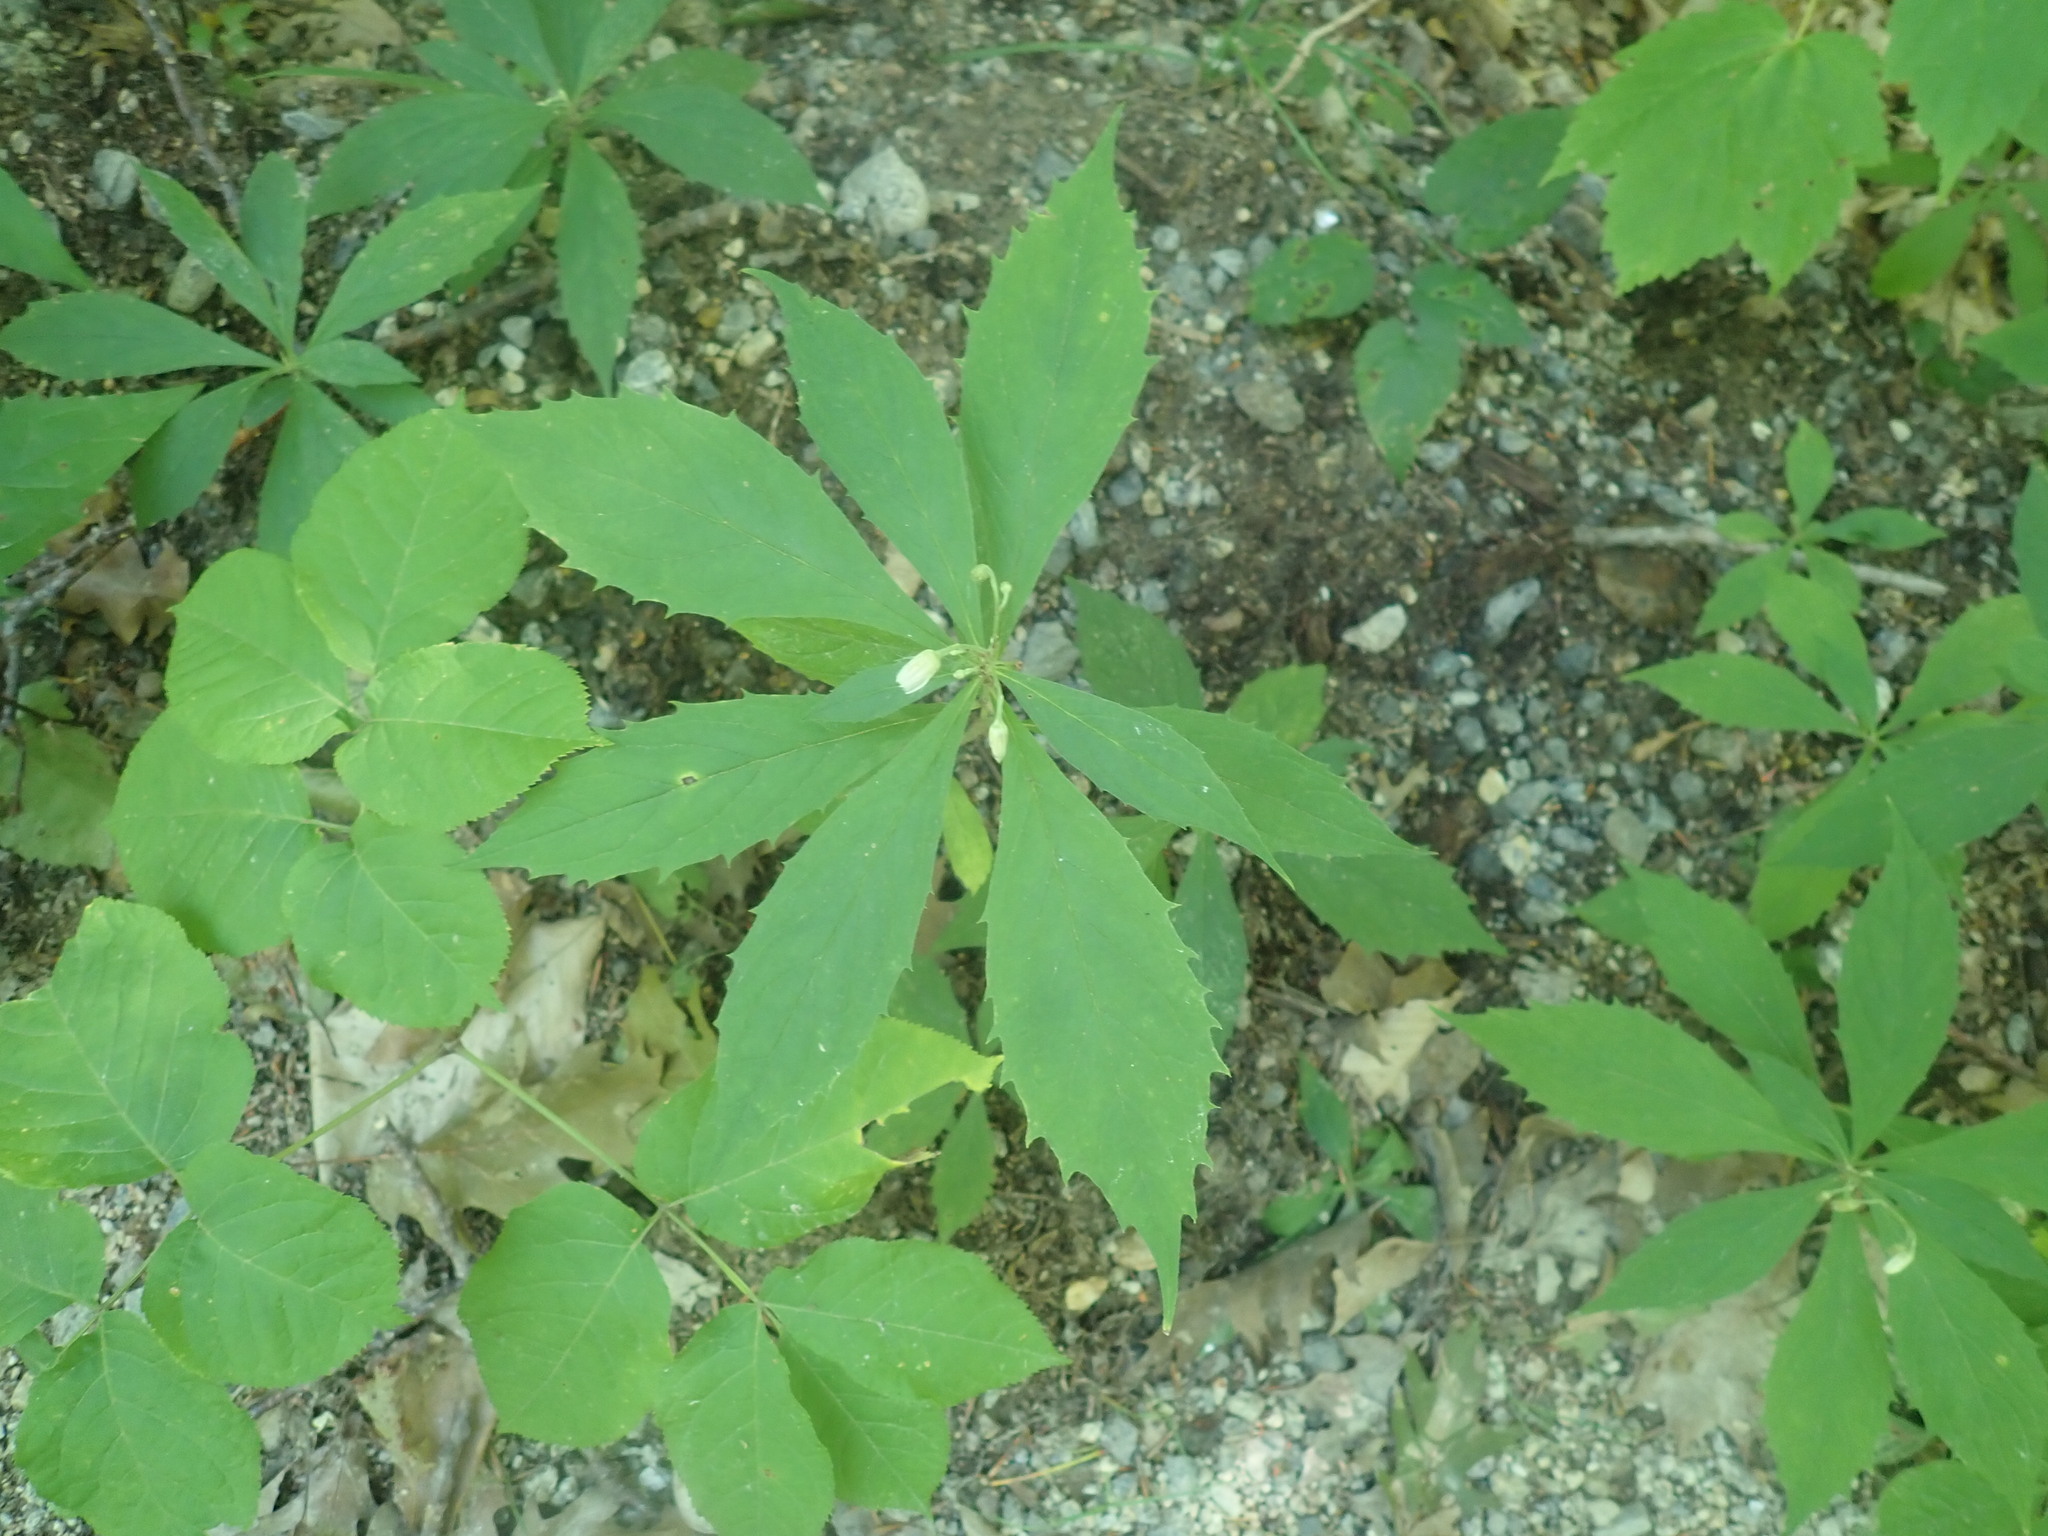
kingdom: Plantae
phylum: Tracheophyta
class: Magnoliopsida
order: Asterales
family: Asteraceae
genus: Oclemena
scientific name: Oclemena acuminata
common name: Mountain aster
